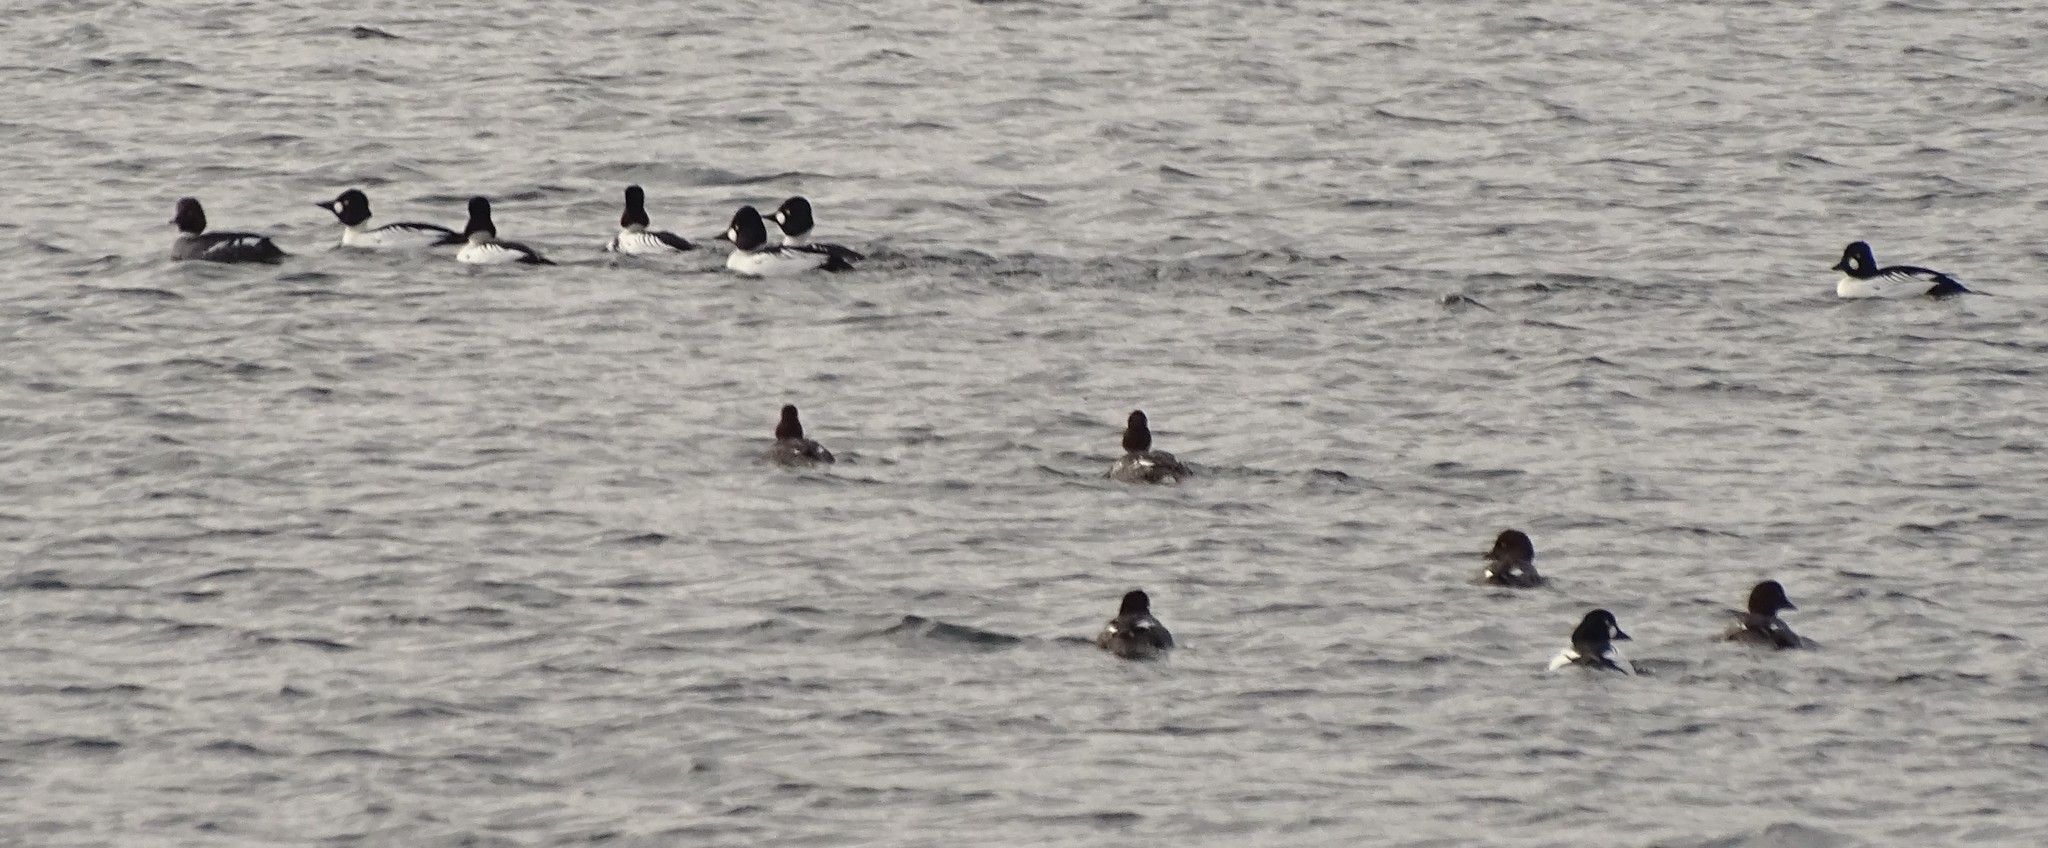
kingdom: Animalia
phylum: Chordata
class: Aves
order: Anseriformes
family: Anatidae
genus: Bucephala
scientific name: Bucephala clangula
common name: Common goldeneye
